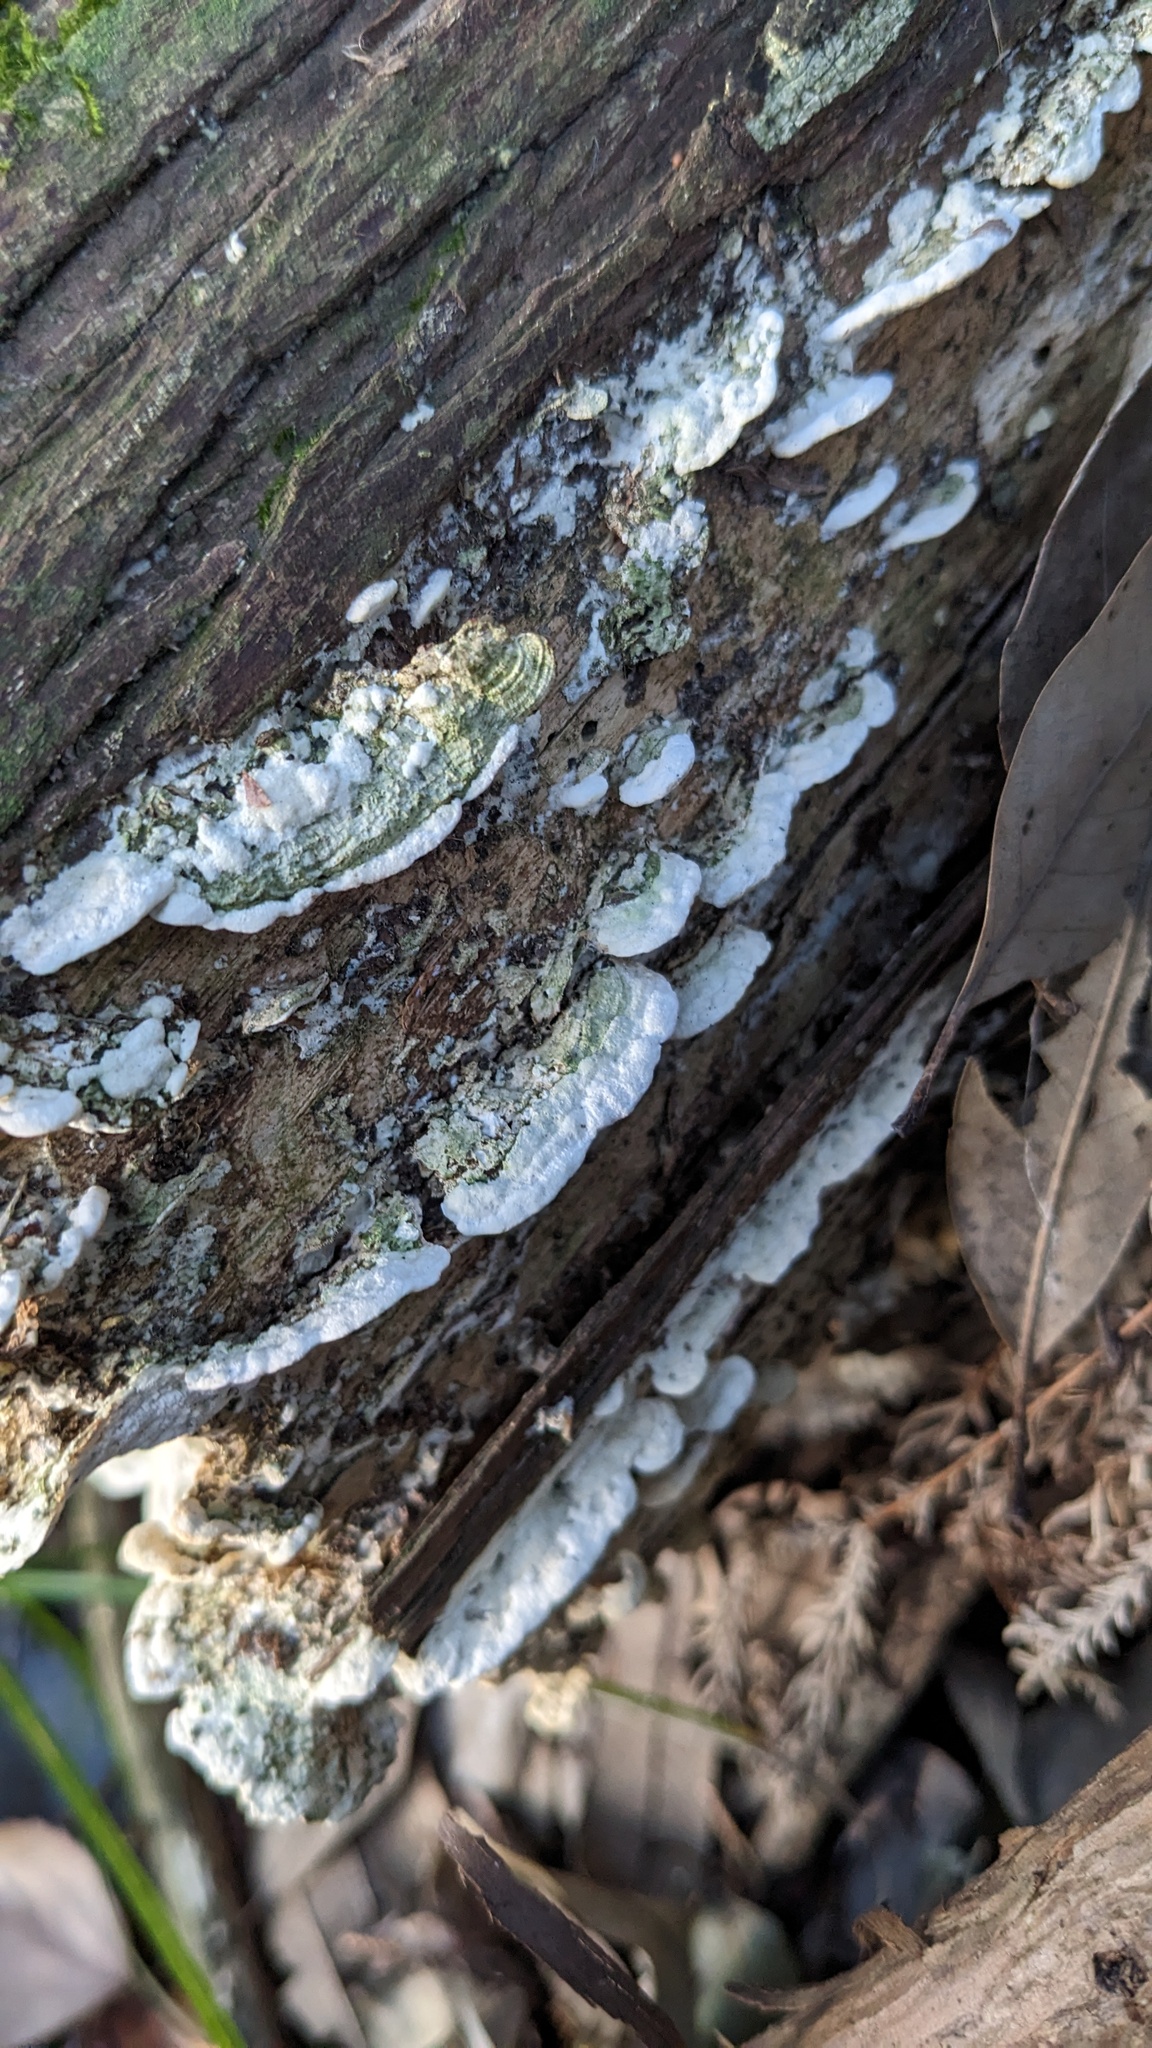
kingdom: Fungi
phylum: Basidiomycota
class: Agaricomycetes
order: Hymenochaetales
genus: Cyanotrama
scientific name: Cyanotrama
